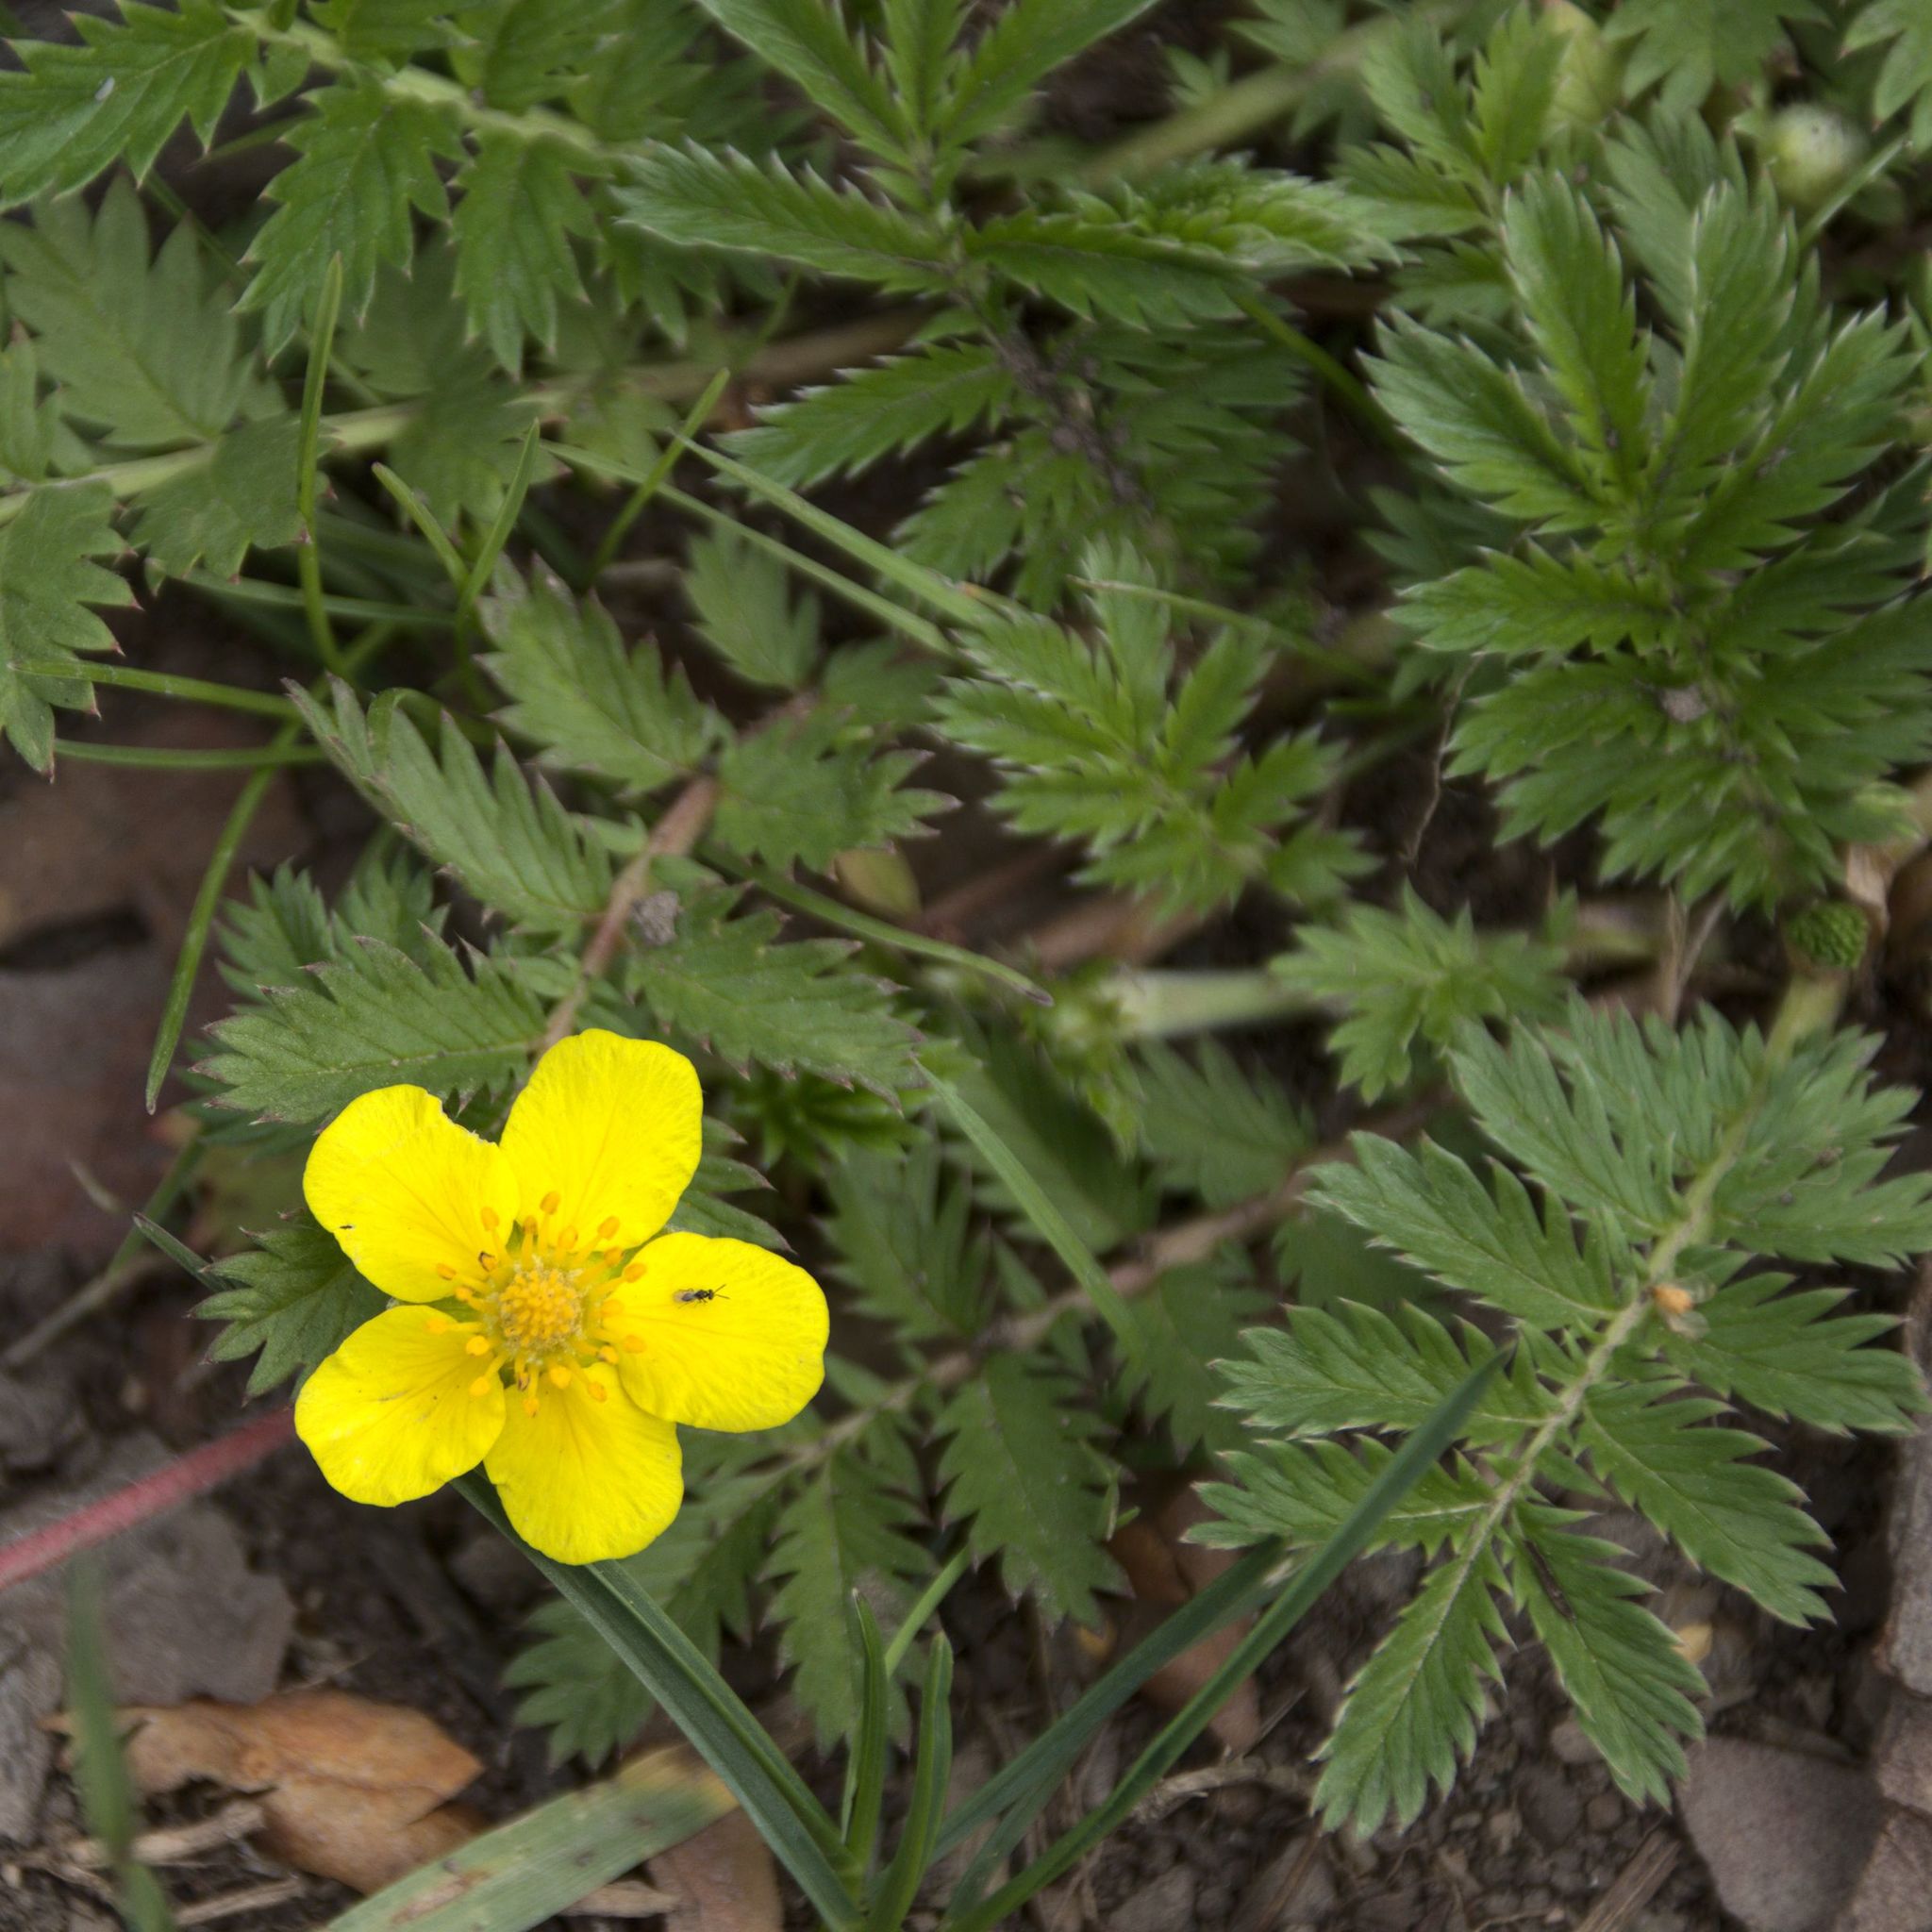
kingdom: Plantae
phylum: Tracheophyta
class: Magnoliopsida
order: Rosales
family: Rosaceae
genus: Argentina
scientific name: Argentina anserina
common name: Common silverweed
